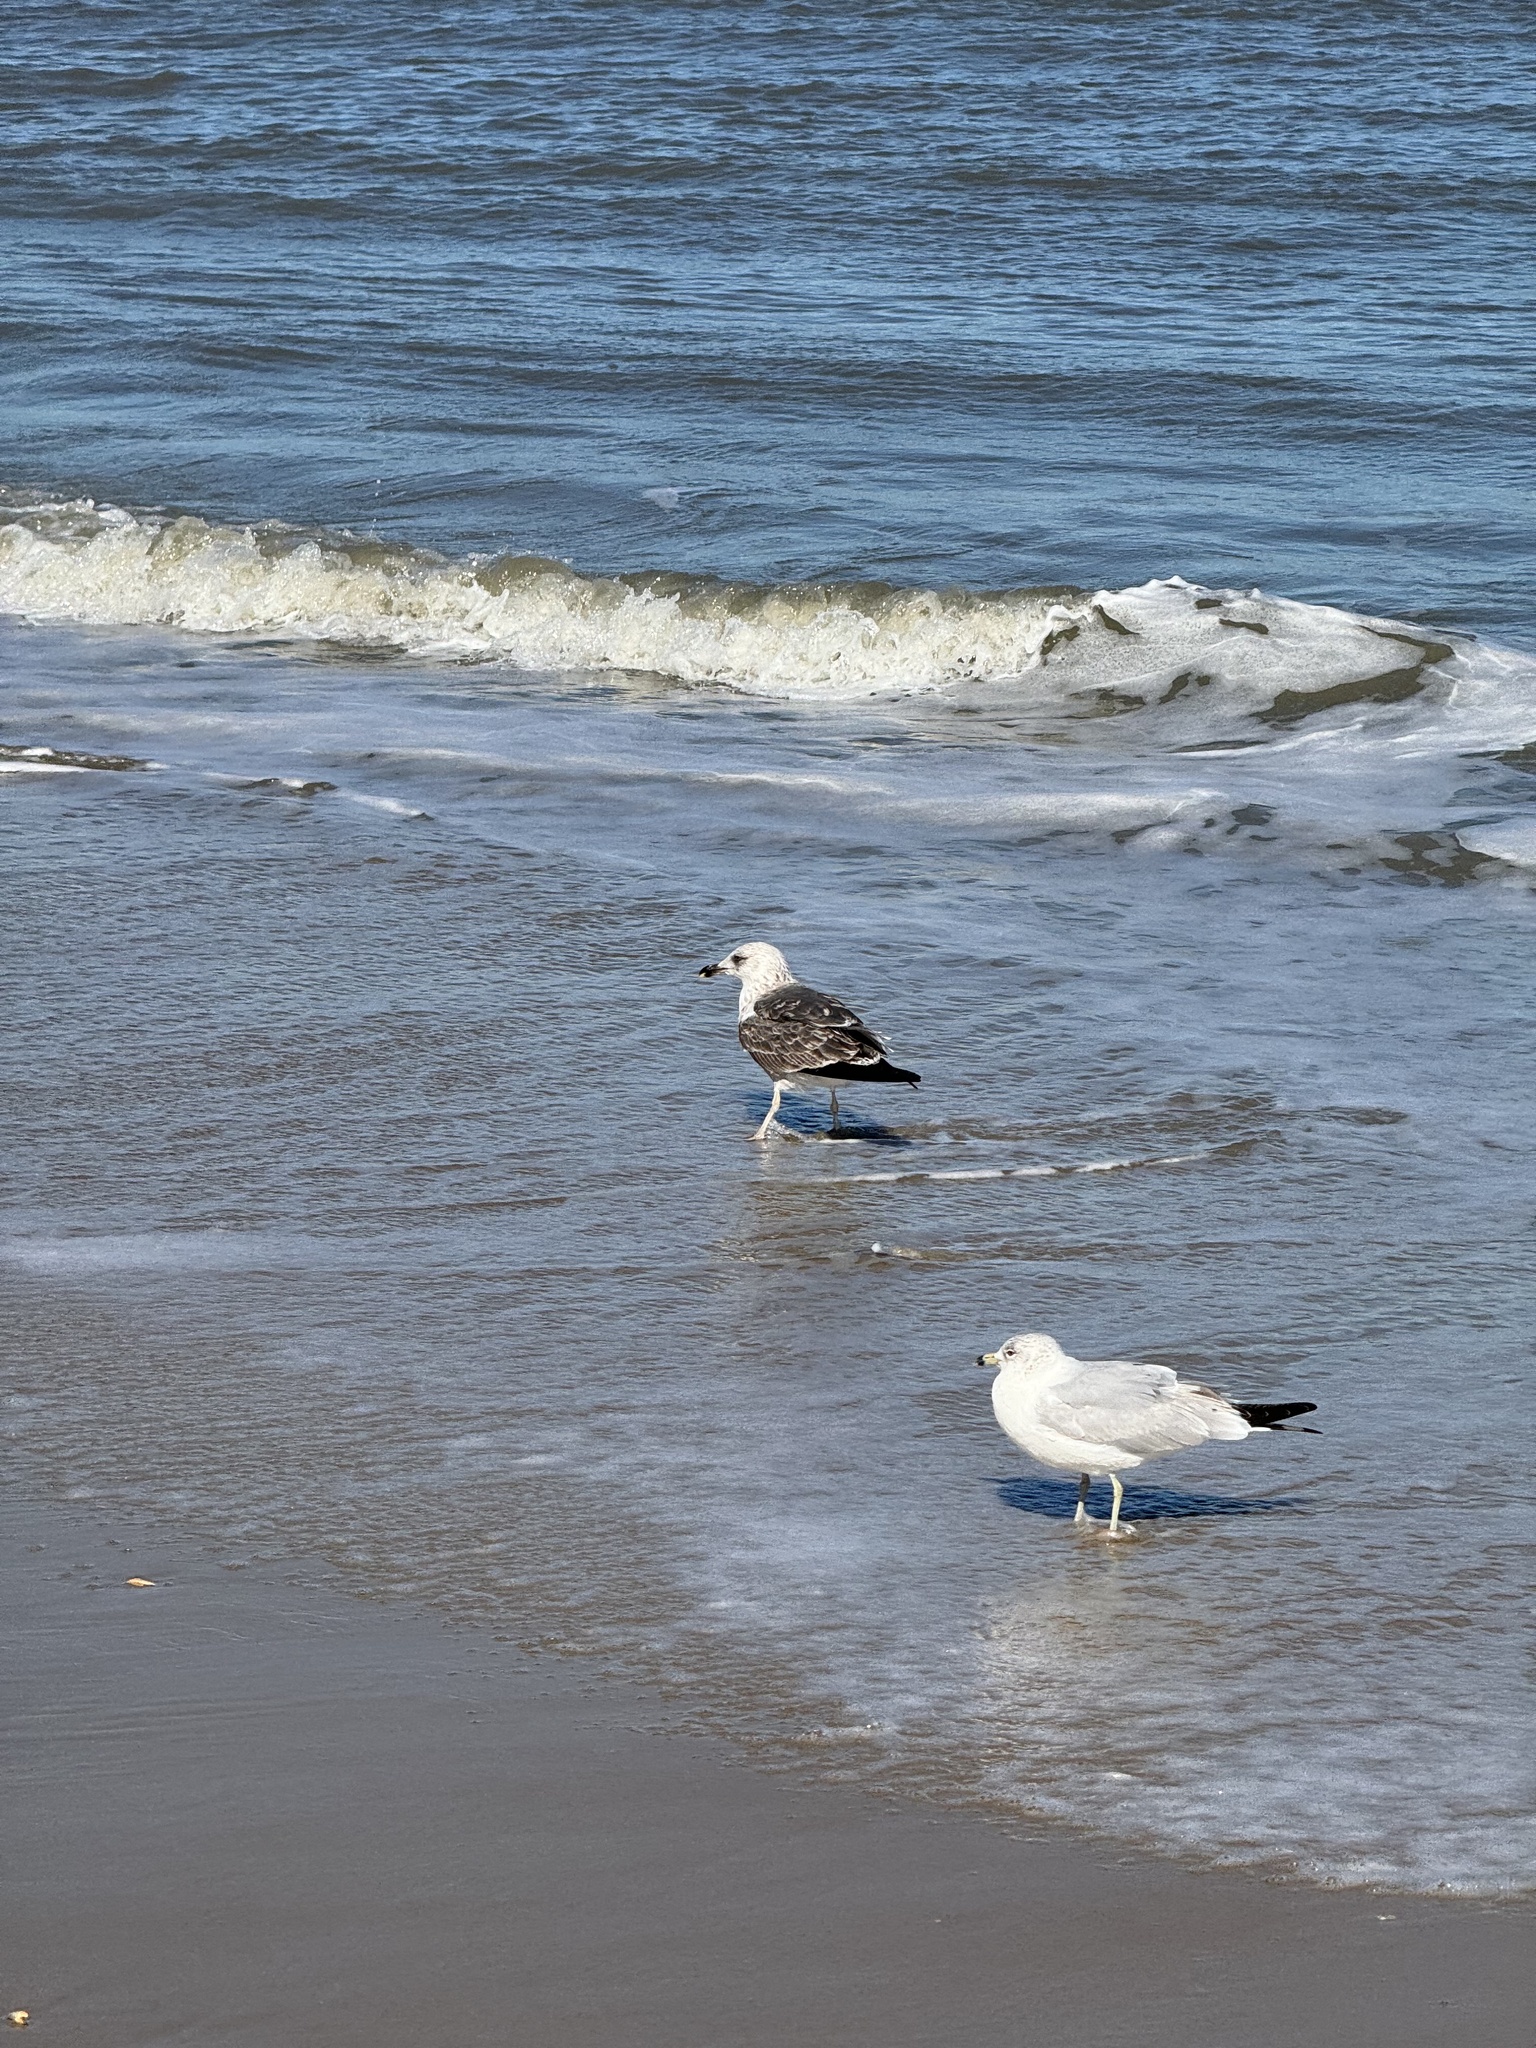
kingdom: Animalia
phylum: Chordata
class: Aves
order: Charadriiformes
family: Laridae
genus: Larus
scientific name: Larus marinus
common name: Great black-backed gull
